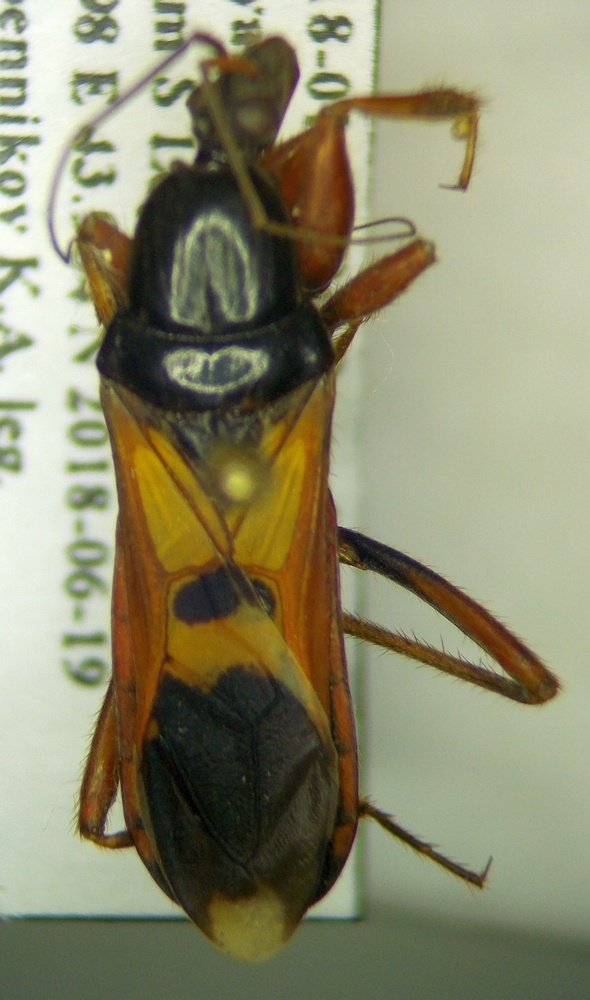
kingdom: Animalia
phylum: Arthropoda
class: Insecta
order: Hemiptera
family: Reduviidae
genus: Ectomocoris
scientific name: Ectomocoris ululans
